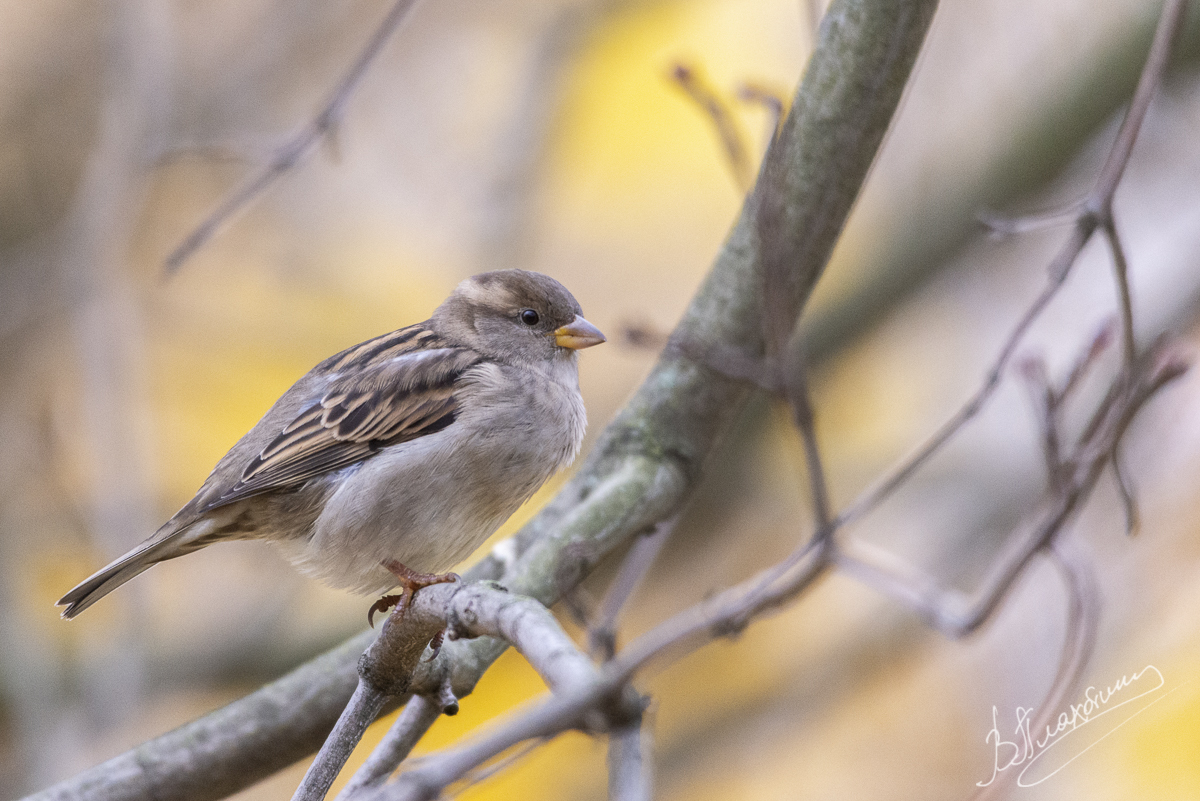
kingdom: Animalia
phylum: Chordata
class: Aves
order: Passeriformes
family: Passeridae
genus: Passer
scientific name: Passer domesticus
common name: House sparrow
